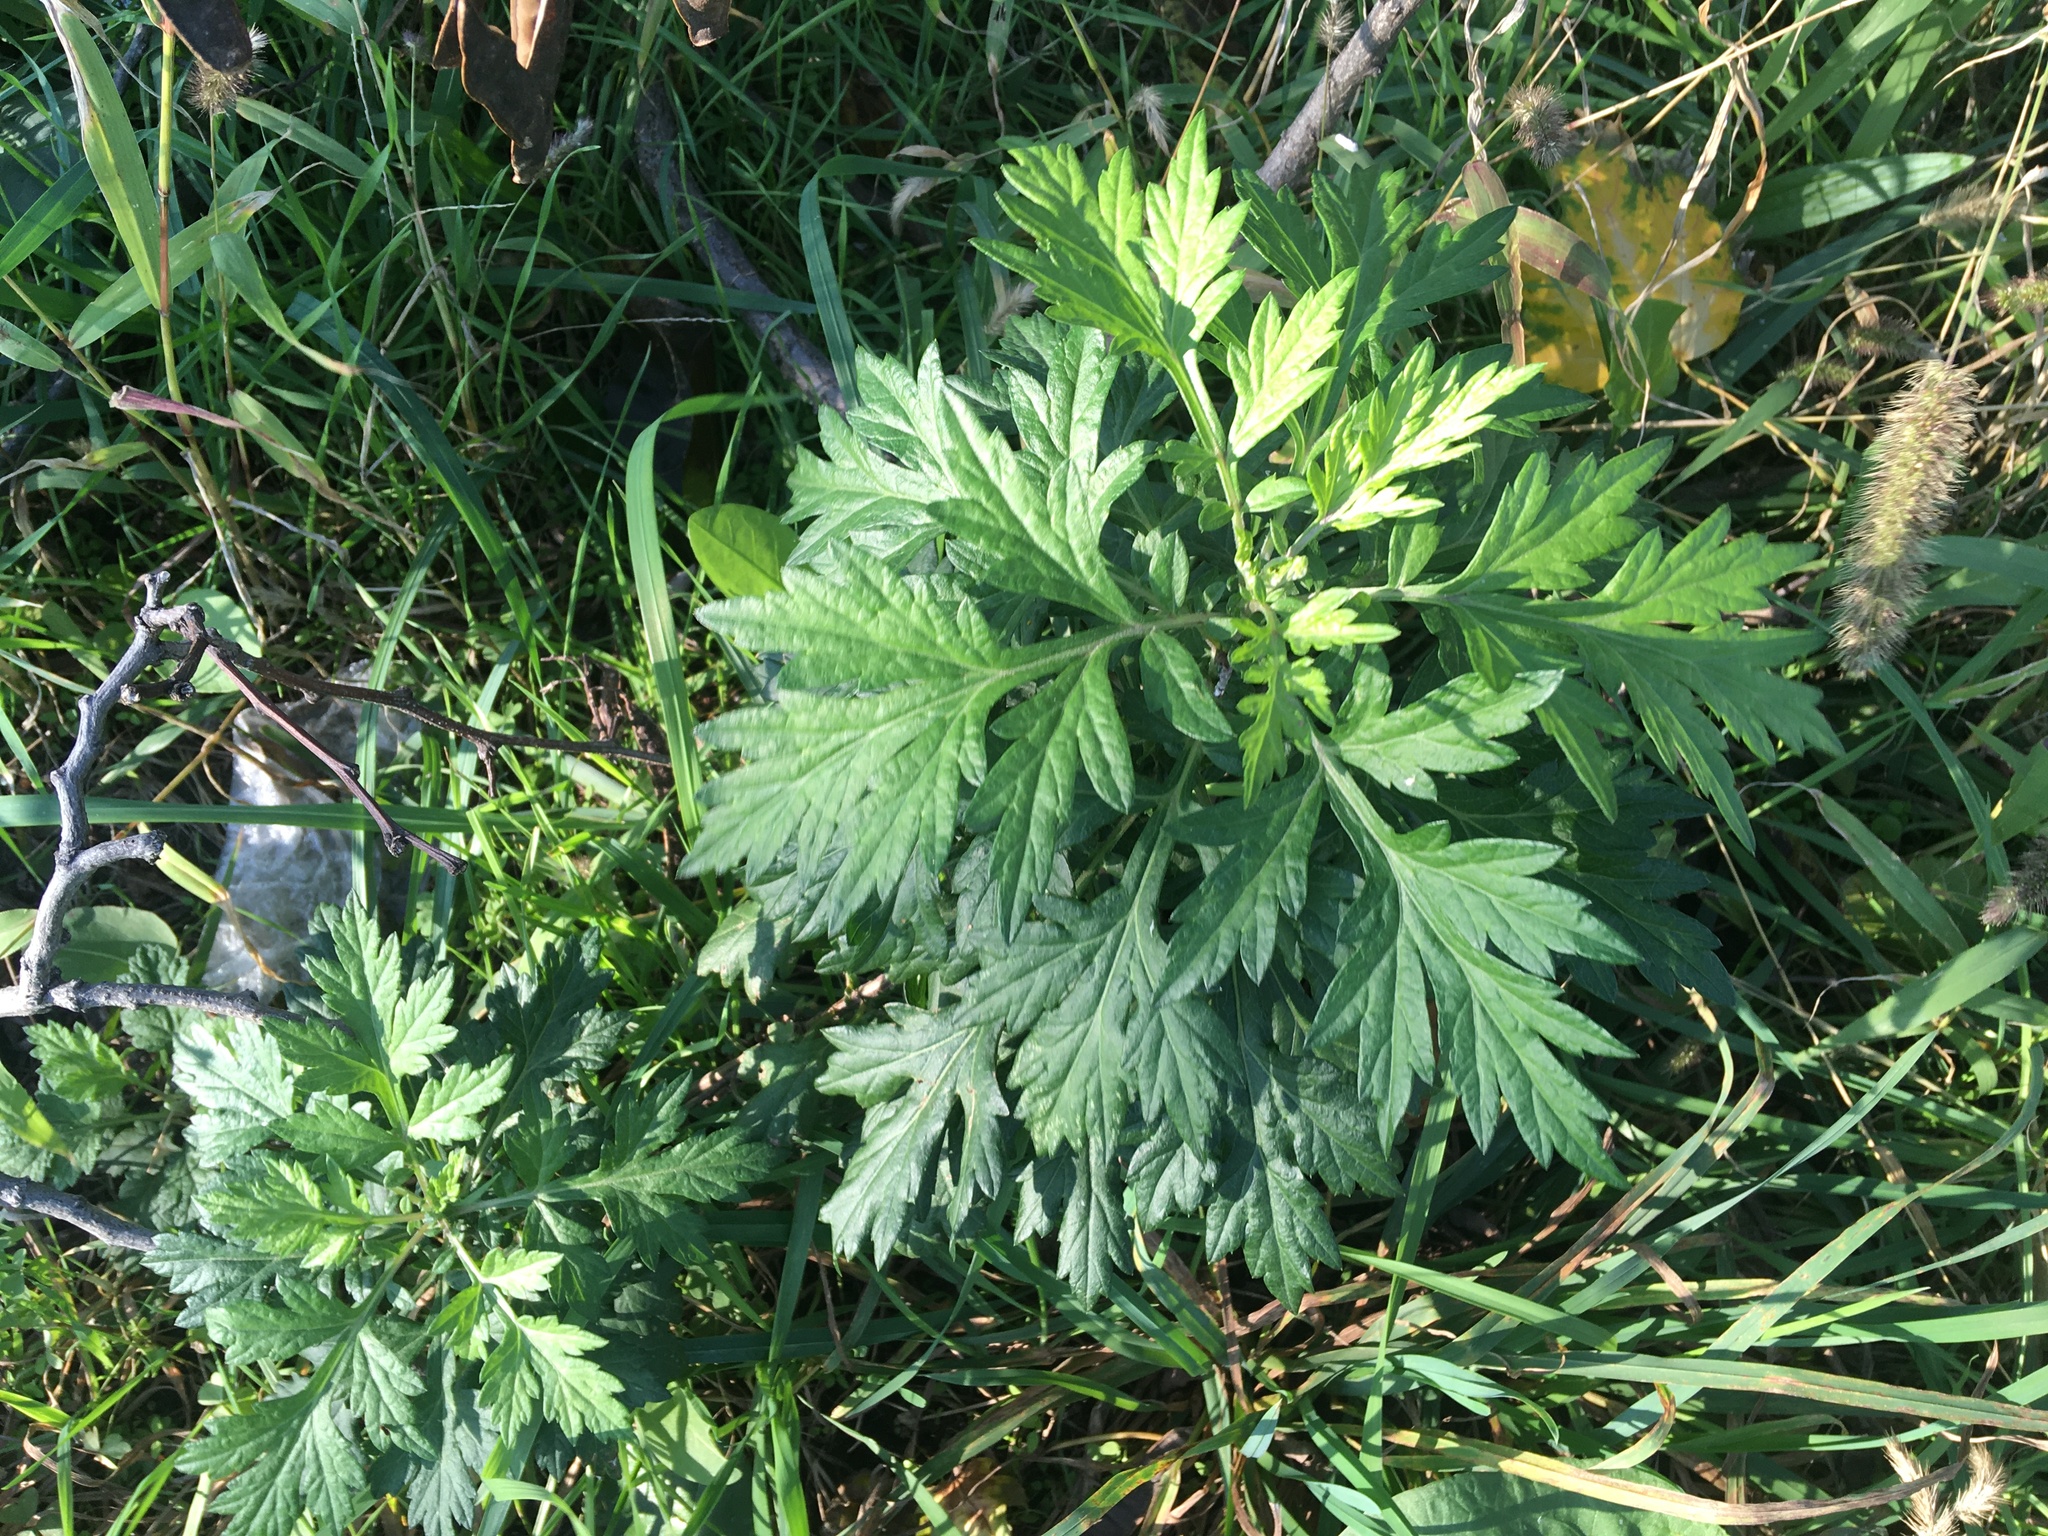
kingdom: Plantae
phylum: Tracheophyta
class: Magnoliopsida
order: Asterales
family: Asteraceae
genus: Artemisia
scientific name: Artemisia vulgaris
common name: Mugwort
